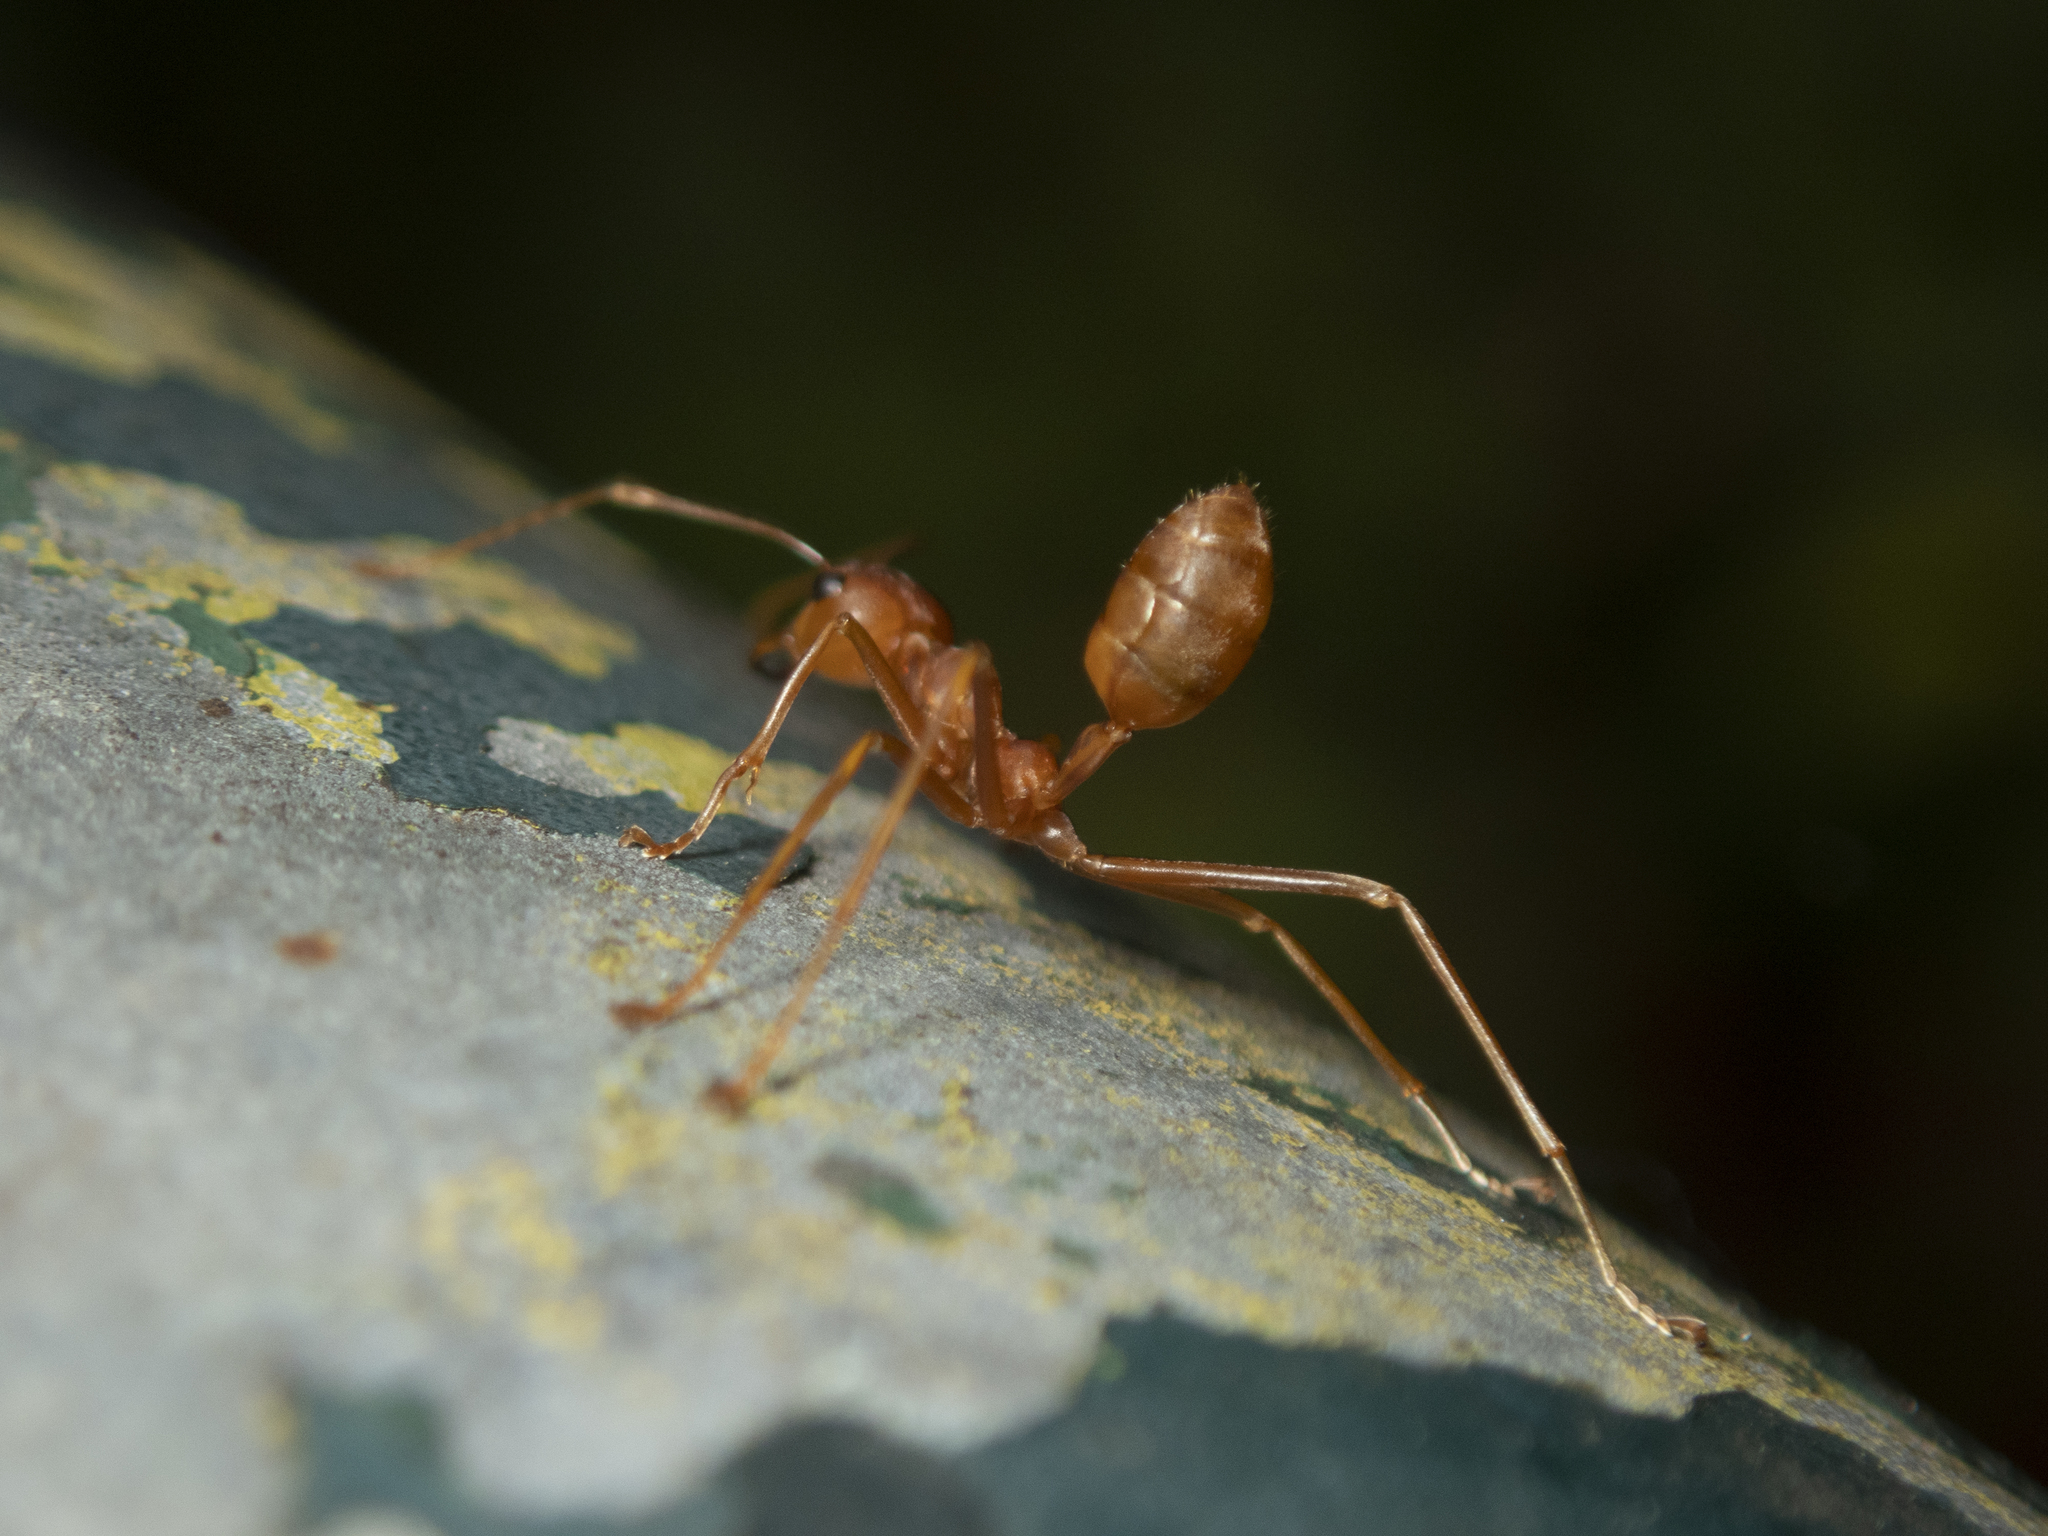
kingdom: Animalia
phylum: Arthropoda
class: Insecta
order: Hymenoptera
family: Formicidae
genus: Oecophylla
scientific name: Oecophylla smaragdina
